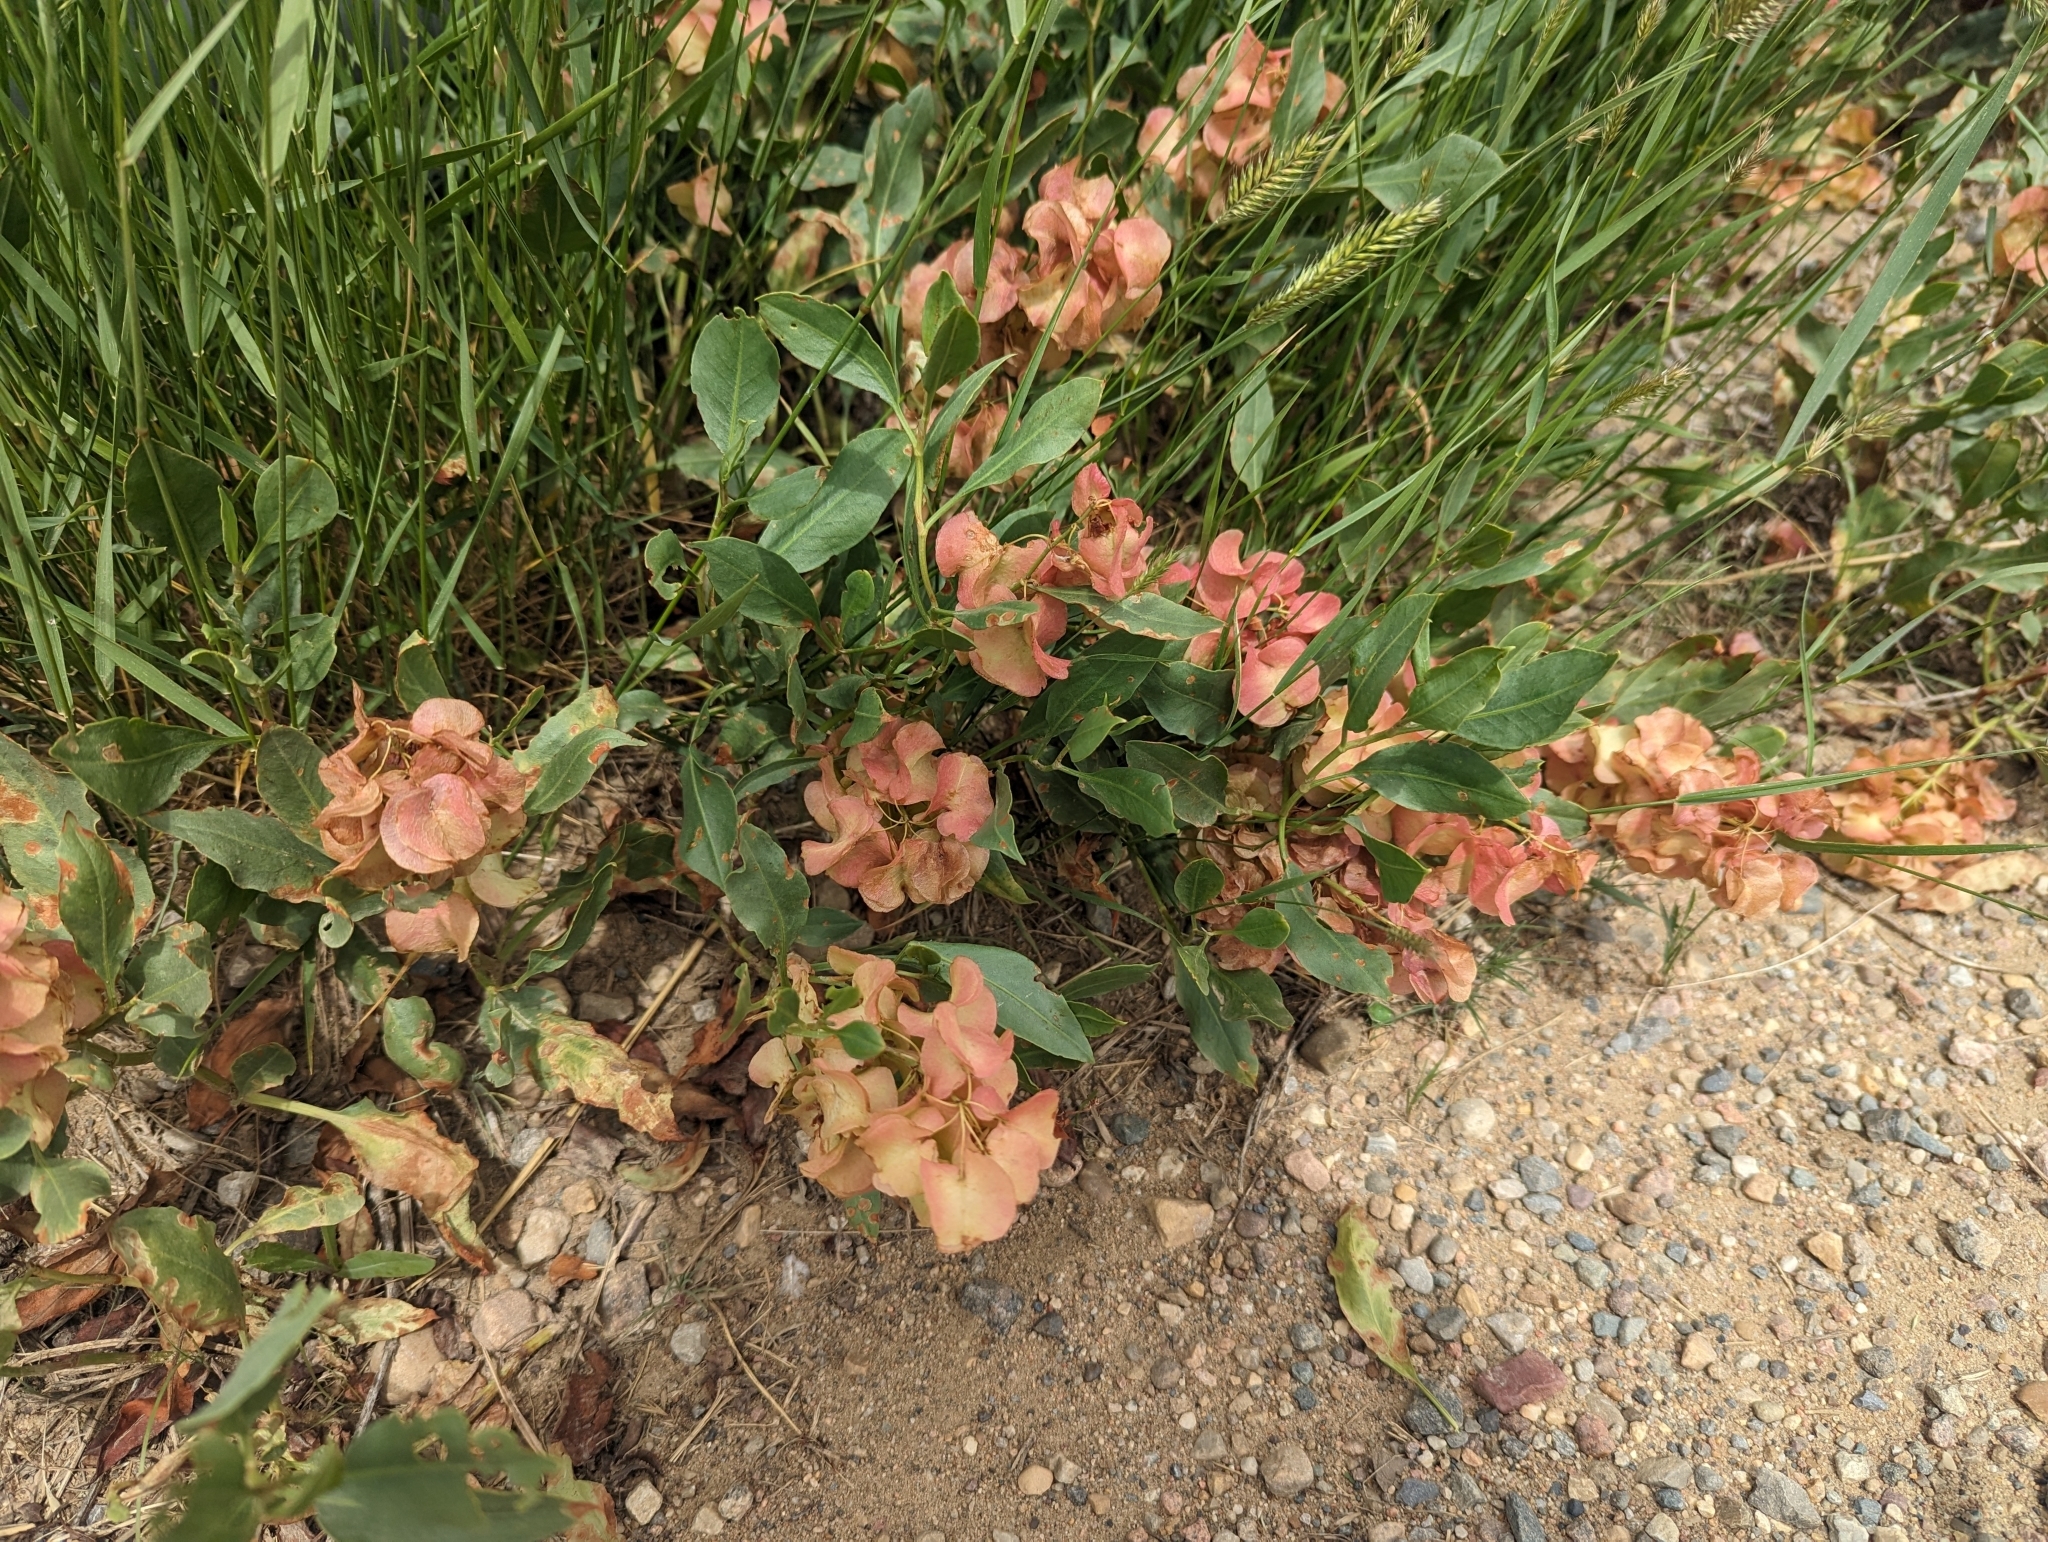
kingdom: Plantae
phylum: Tracheophyta
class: Magnoliopsida
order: Caryophyllales
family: Polygonaceae
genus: Rumex
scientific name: Rumex venosus
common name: Winged dock
